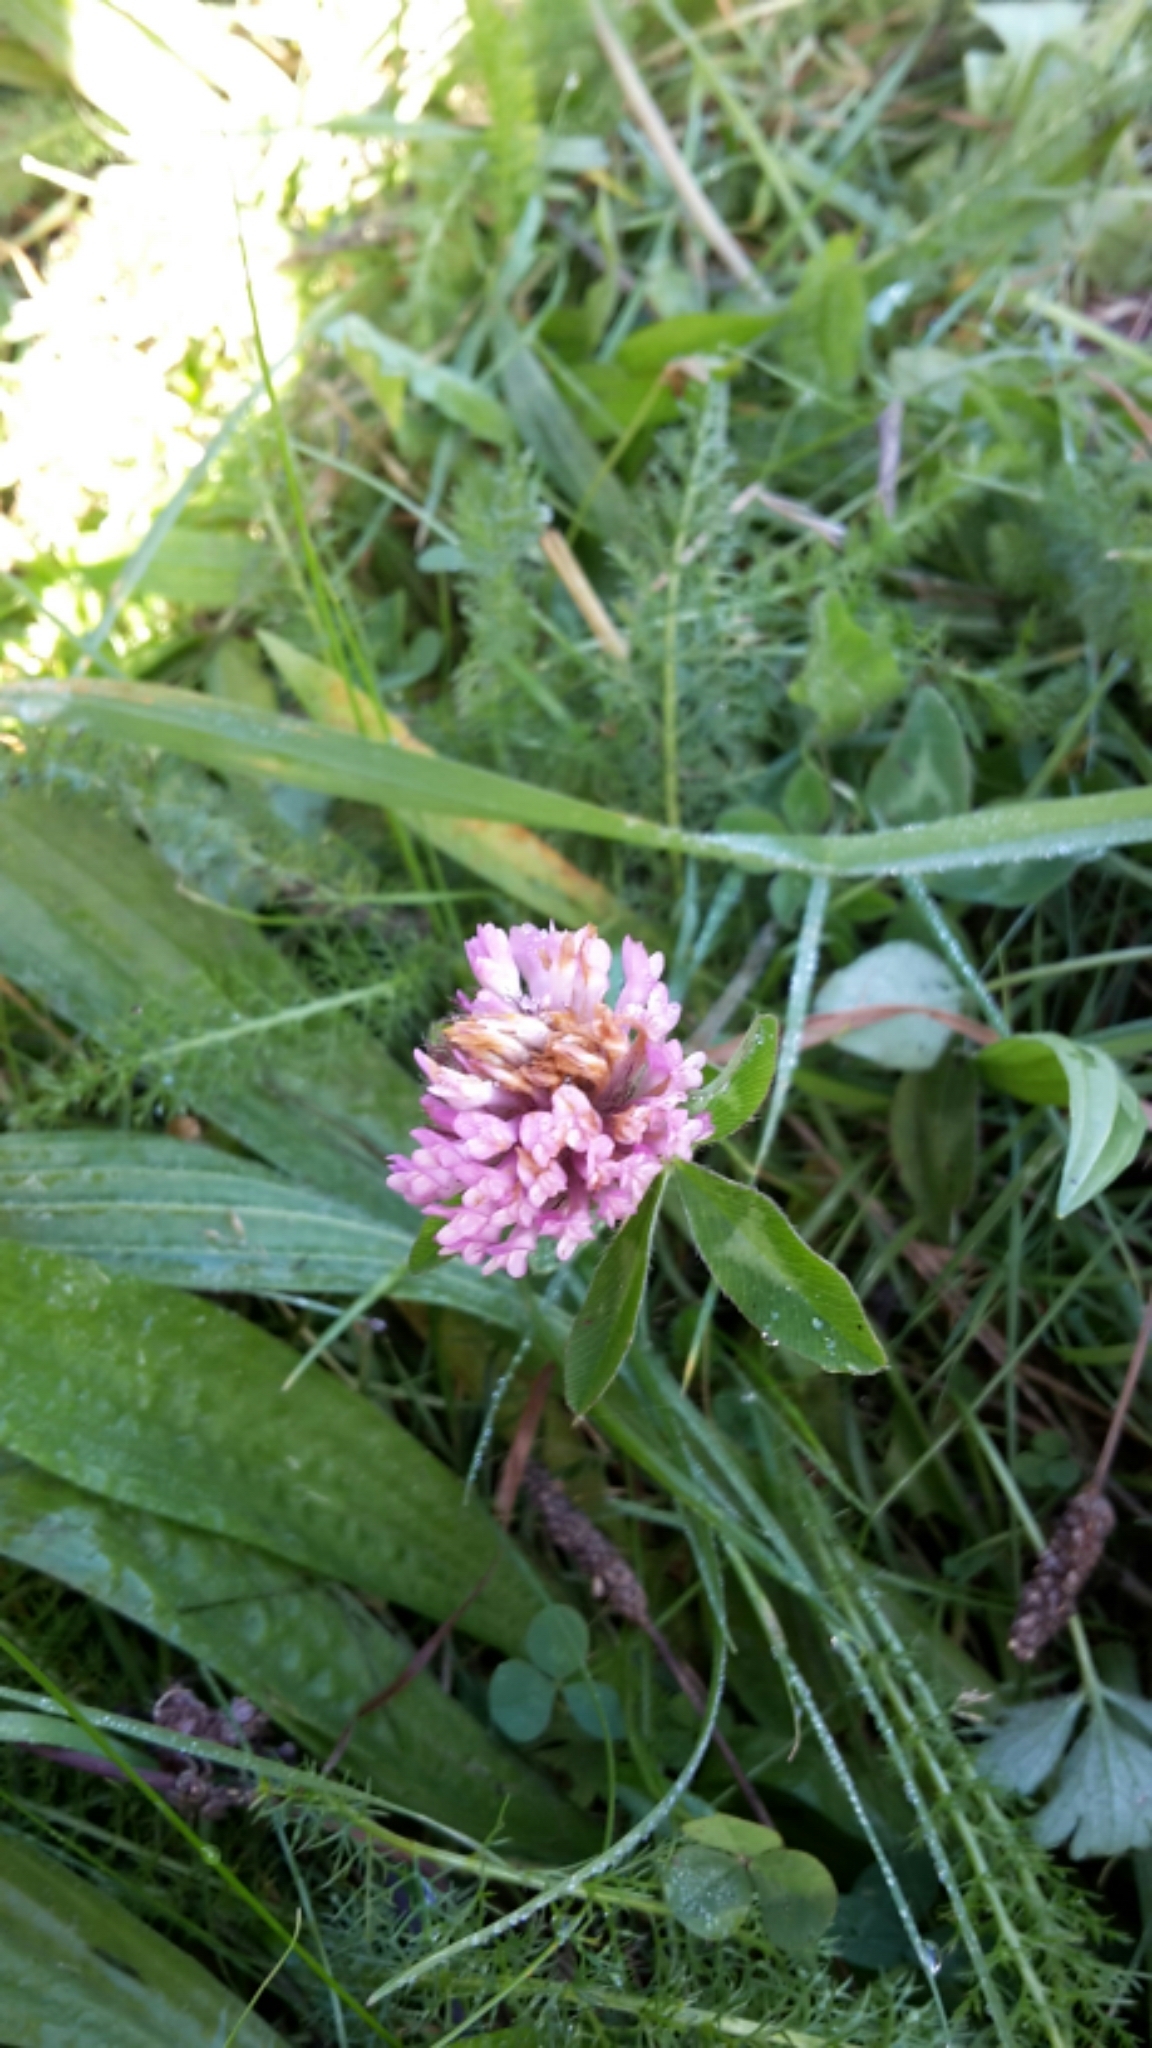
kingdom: Plantae
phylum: Tracheophyta
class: Magnoliopsida
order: Fabales
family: Fabaceae
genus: Trifolium
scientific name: Trifolium pratense
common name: Red clover
